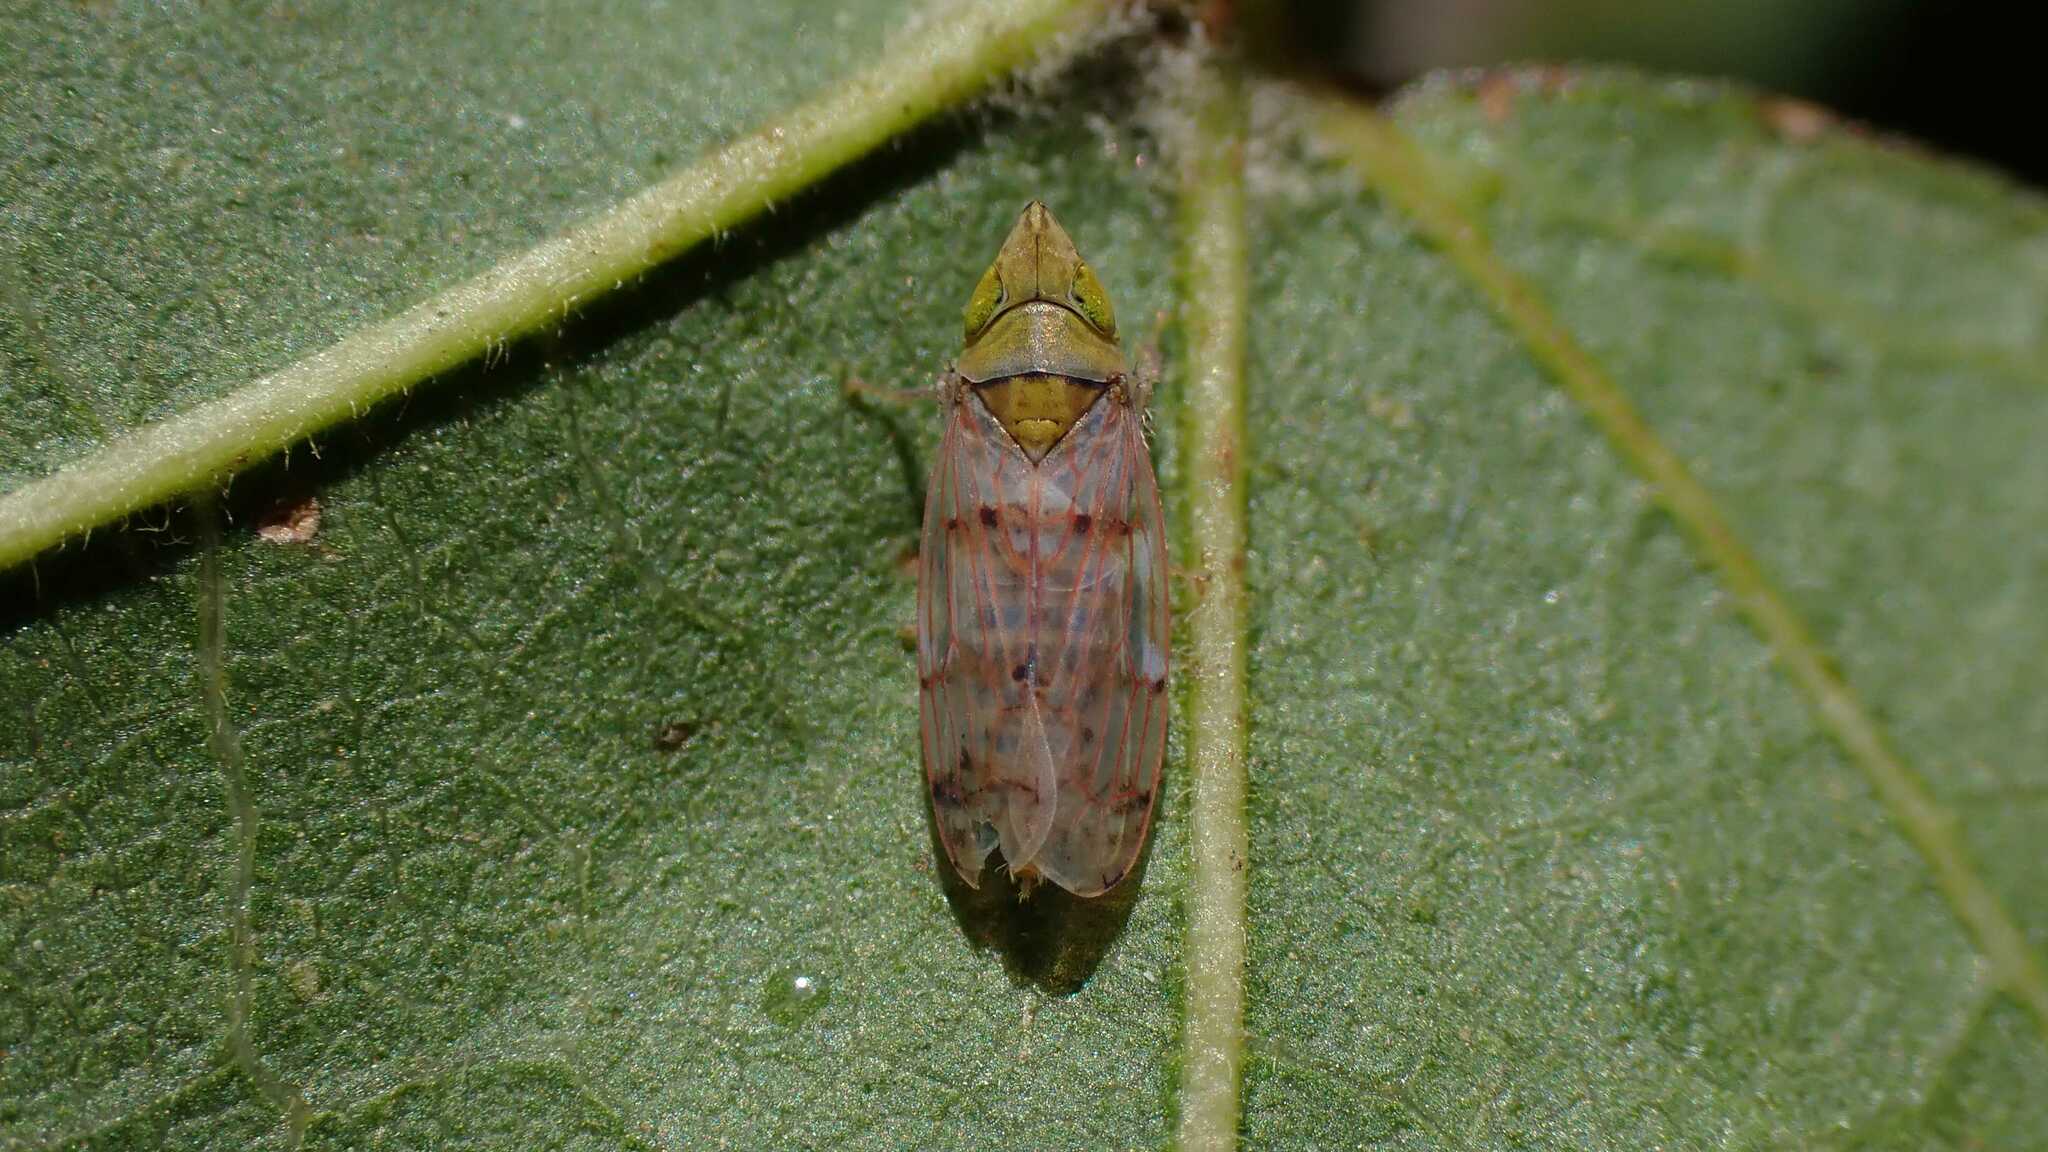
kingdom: Animalia
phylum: Arthropoda
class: Insecta
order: Hemiptera
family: Cicadellidae
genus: Japananus
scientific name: Japananus hyalinus
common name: The japanese maple leafhopper
